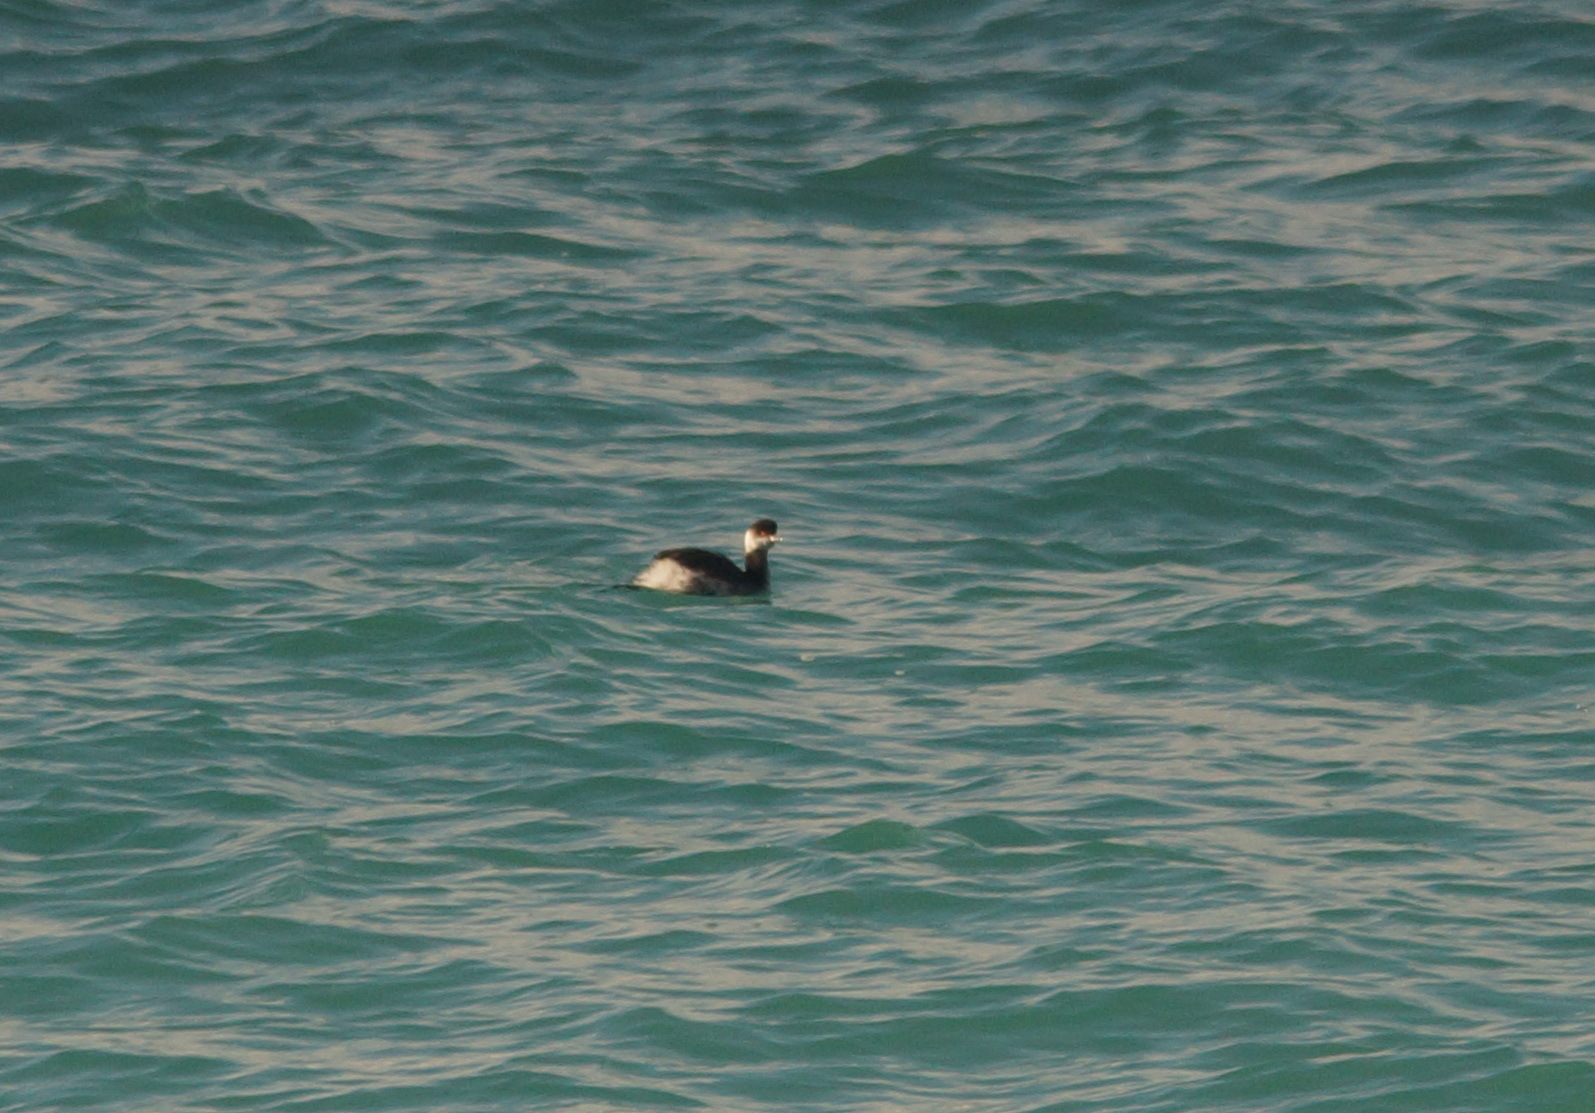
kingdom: Animalia
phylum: Chordata
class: Aves
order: Podicipediformes
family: Podicipedidae
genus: Podiceps
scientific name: Podiceps nigricollis
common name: Black-necked grebe
